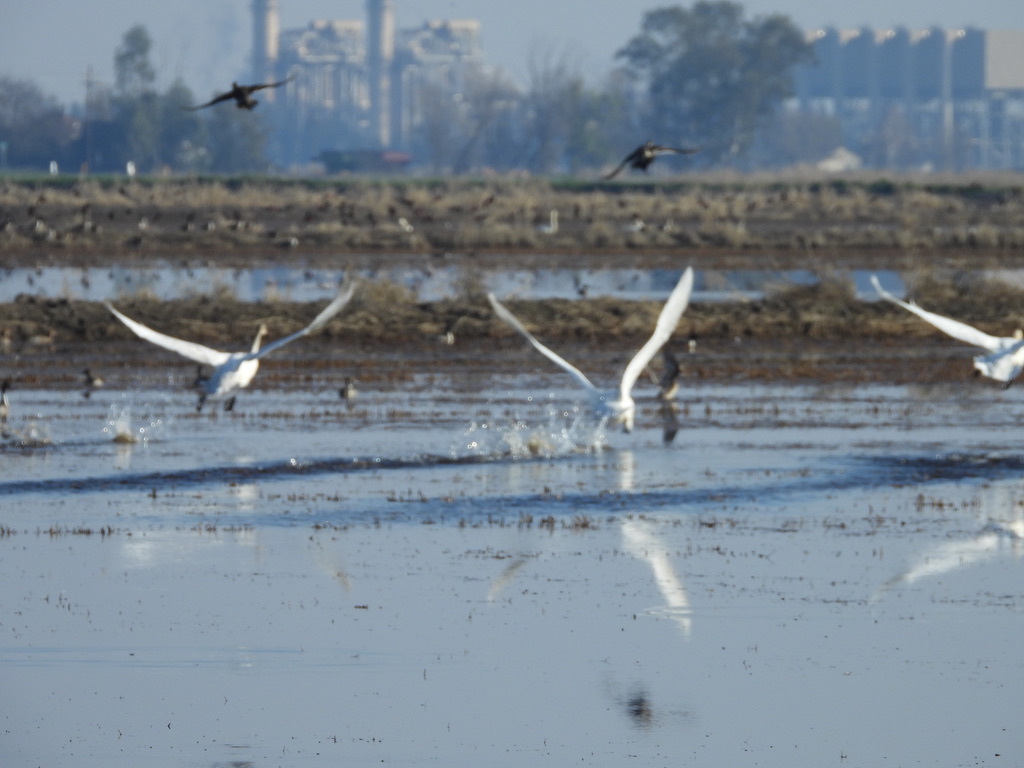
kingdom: Animalia
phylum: Chordata
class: Aves
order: Anseriformes
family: Anatidae
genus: Cygnus
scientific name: Cygnus columbianus
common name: Tundra swan
